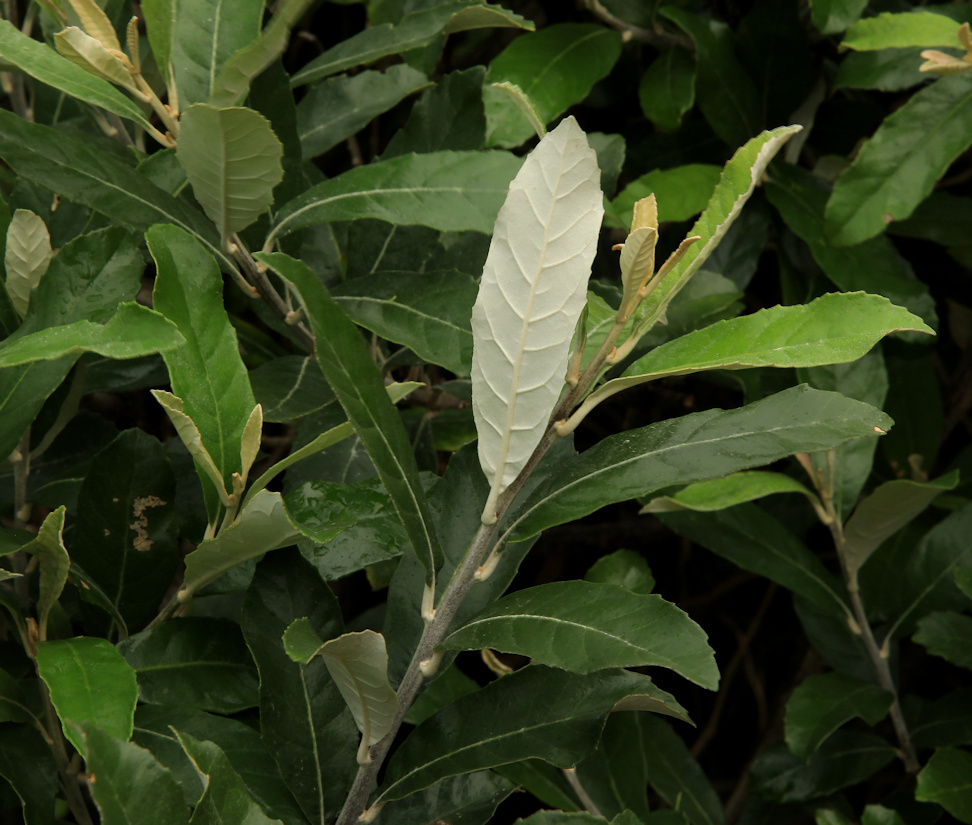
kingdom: Plantae
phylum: Tracheophyta
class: Magnoliopsida
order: Asterales
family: Asteraceae
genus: Brachylaena
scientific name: Brachylaena discolor
